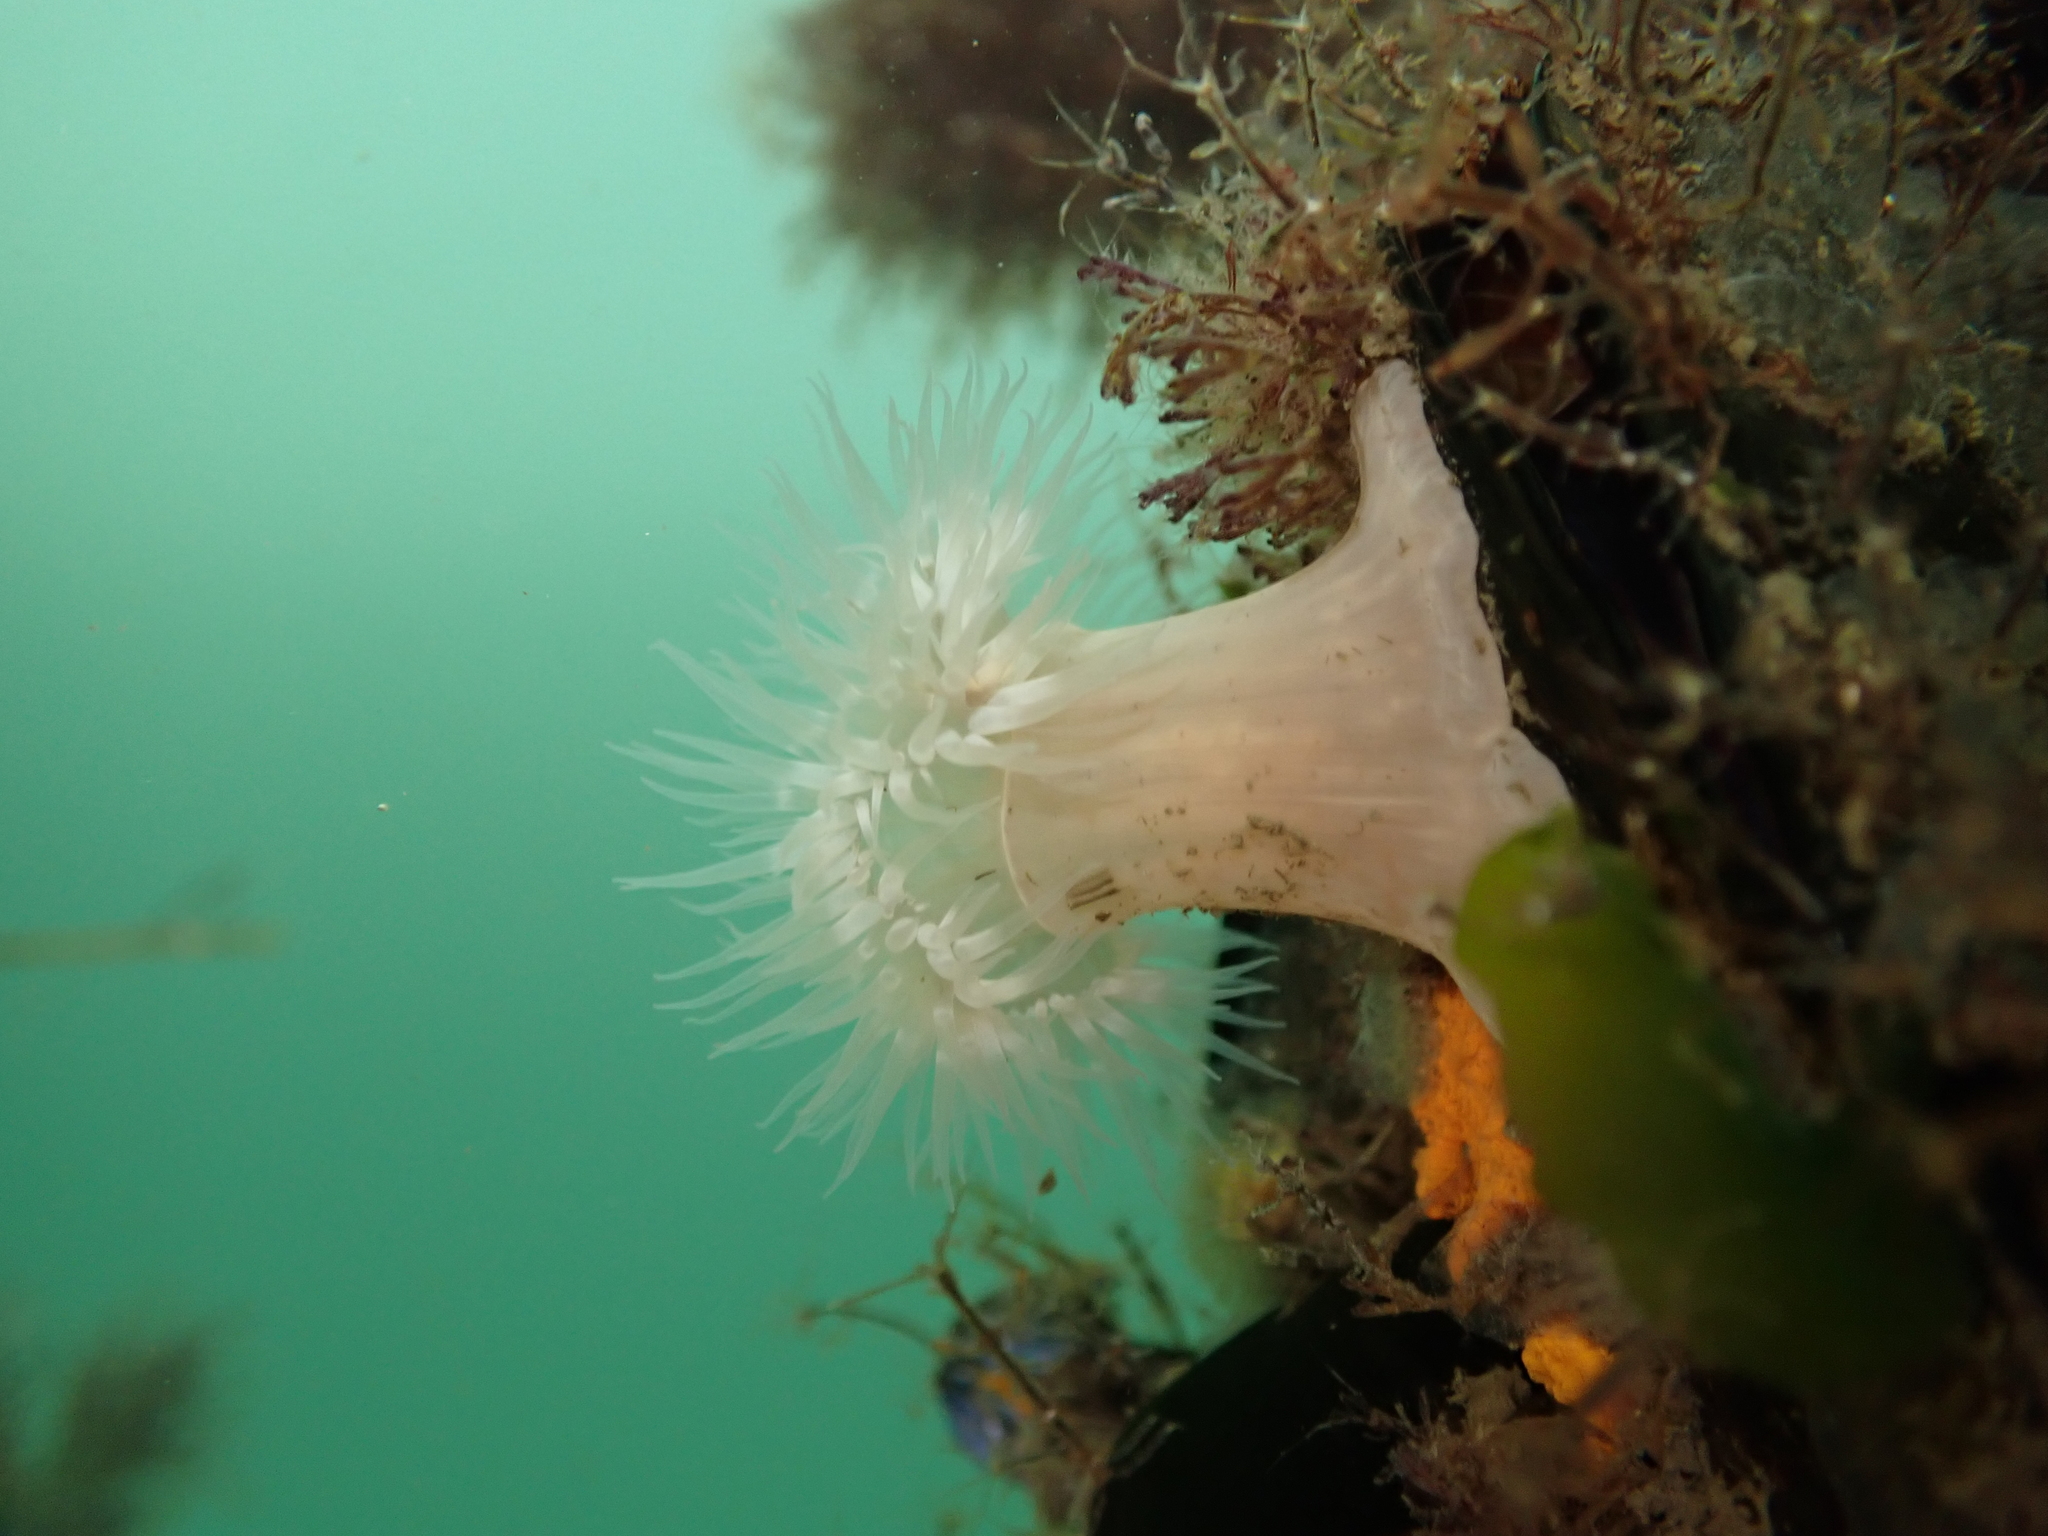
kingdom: Animalia
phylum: Cnidaria
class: Anthozoa
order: Actiniaria
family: Metridiidae
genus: Metridium
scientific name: Metridium senile
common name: Clonal plumose anemone
